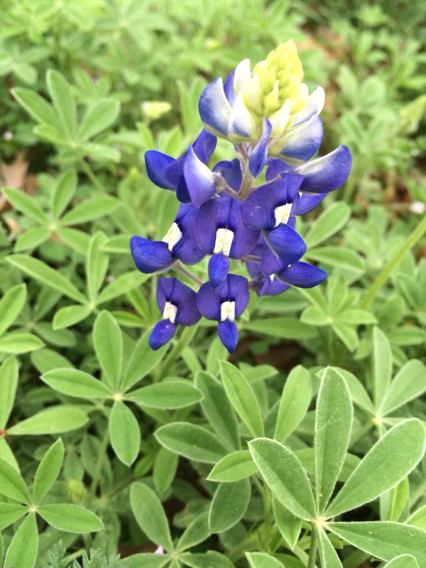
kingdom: Plantae
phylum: Tracheophyta
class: Magnoliopsida
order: Fabales
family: Fabaceae
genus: Lupinus
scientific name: Lupinus texensis
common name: Texas bluebonnet
